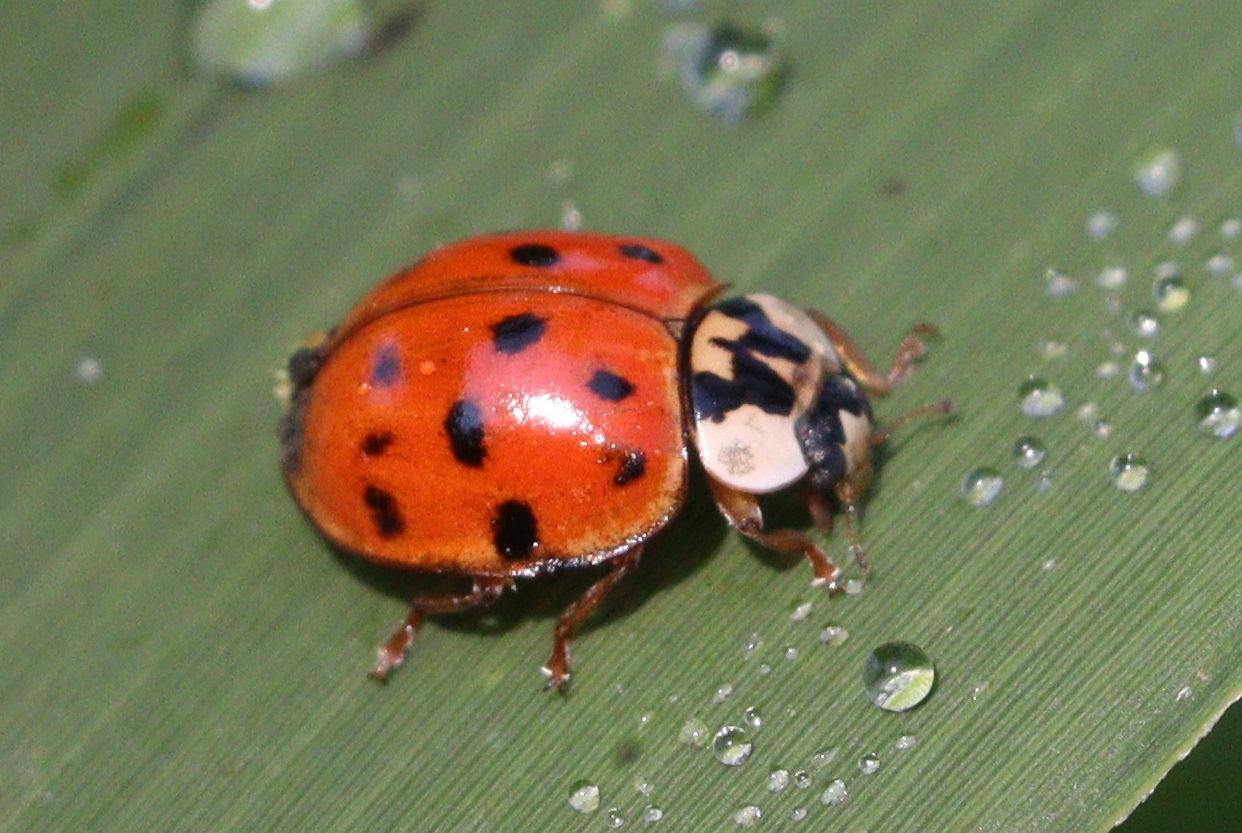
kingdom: Animalia
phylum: Arthropoda
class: Insecta
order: Coleoptera
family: Coccinellidae
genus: Harmonia
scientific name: Harmonia axyridis
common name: Harlequin ladybird
